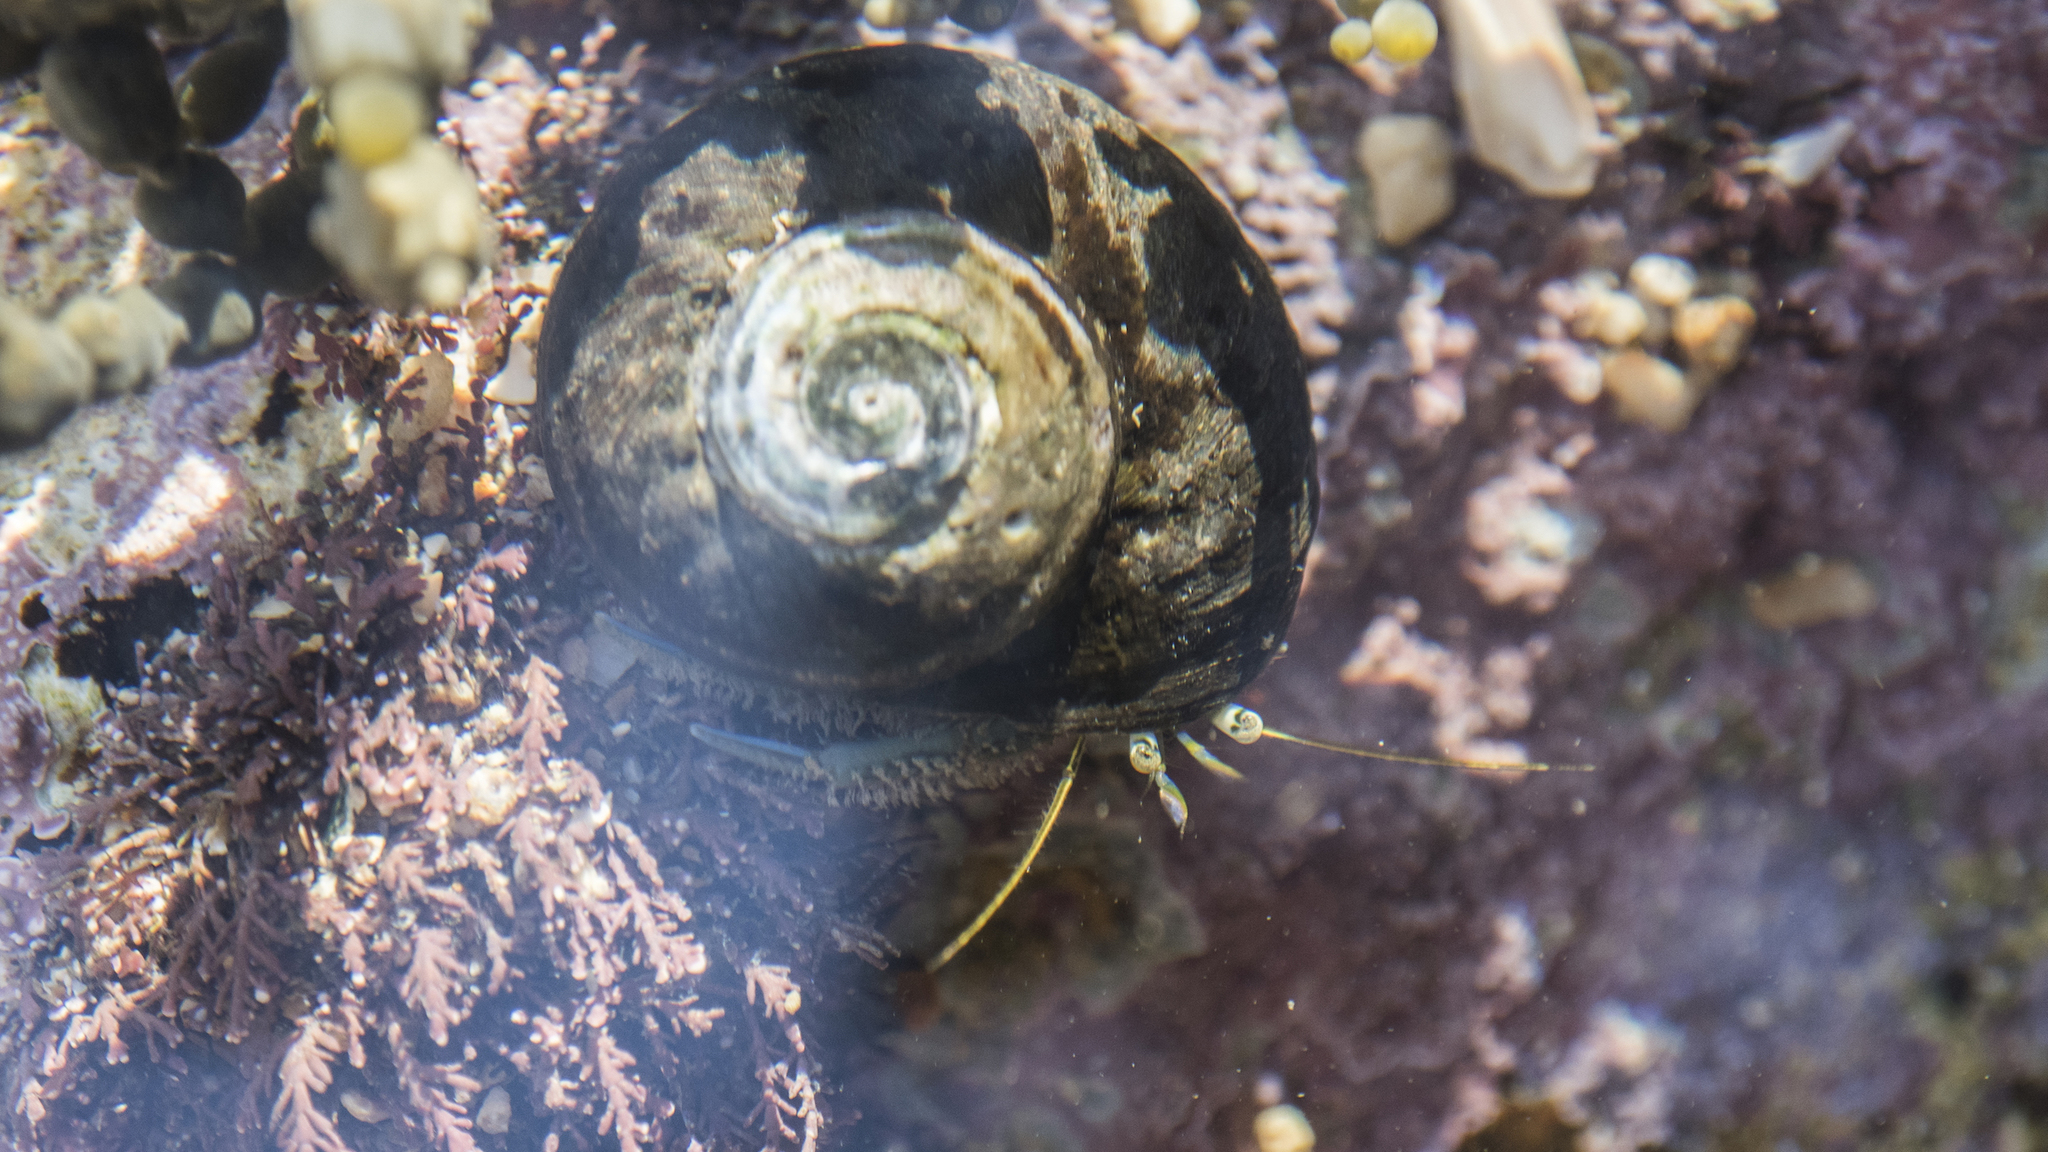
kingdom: Animalia
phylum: Arthropoda
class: Malacostraca
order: Decapoda
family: Paguridae
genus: Pagurus
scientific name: Pagurus novizealandiae
